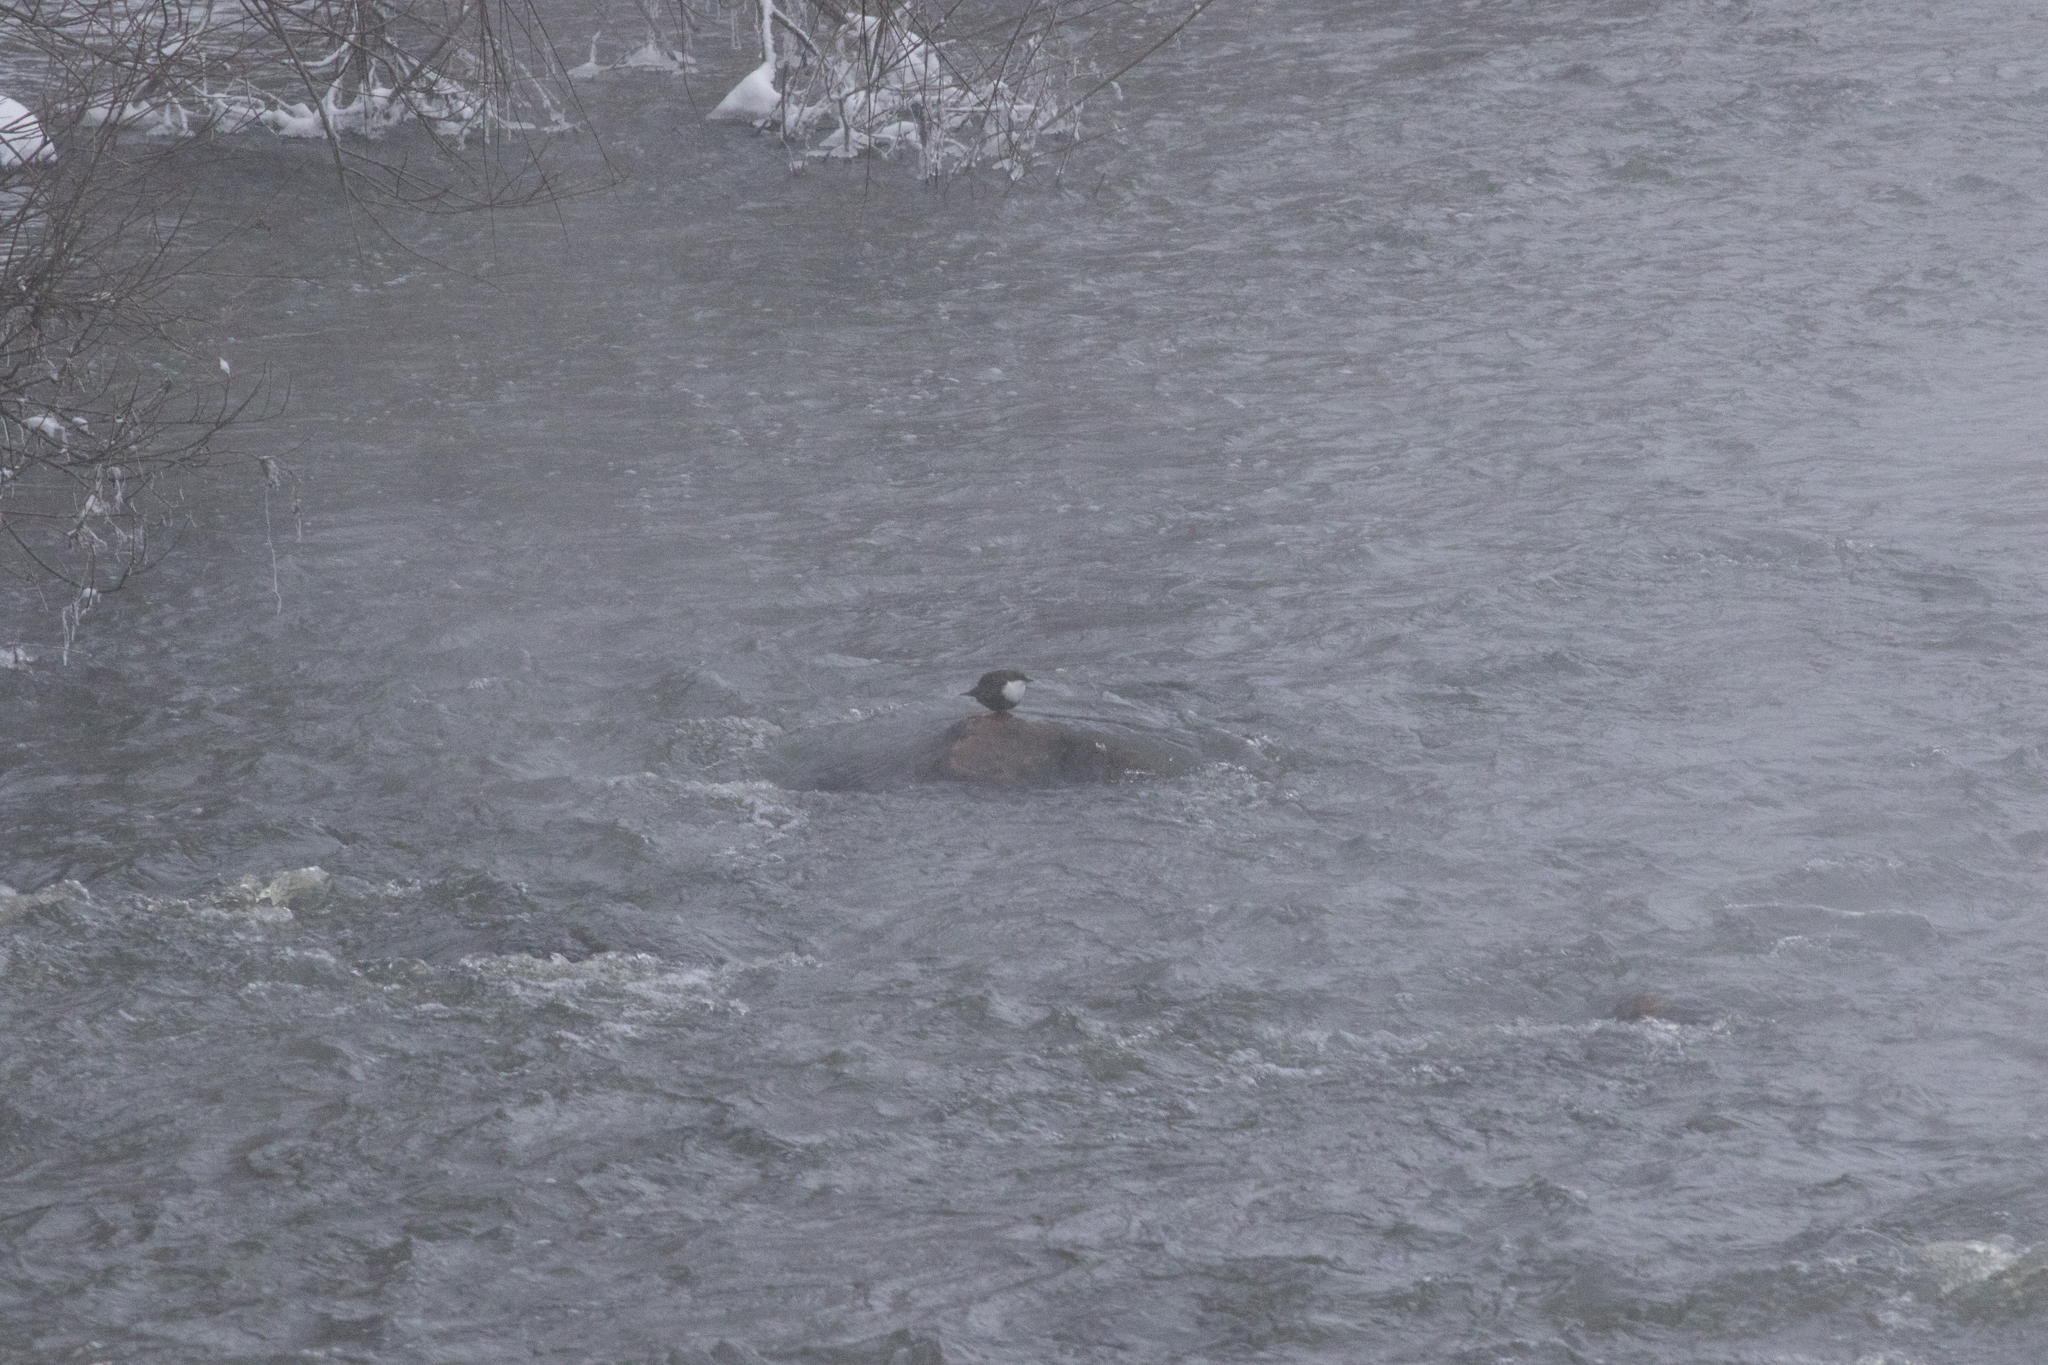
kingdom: Animalia
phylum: Chordata
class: Aves
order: Passeriformes
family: Cinclidae
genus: Cinclus
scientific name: Cinclus cinclus
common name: White-throated dipper
